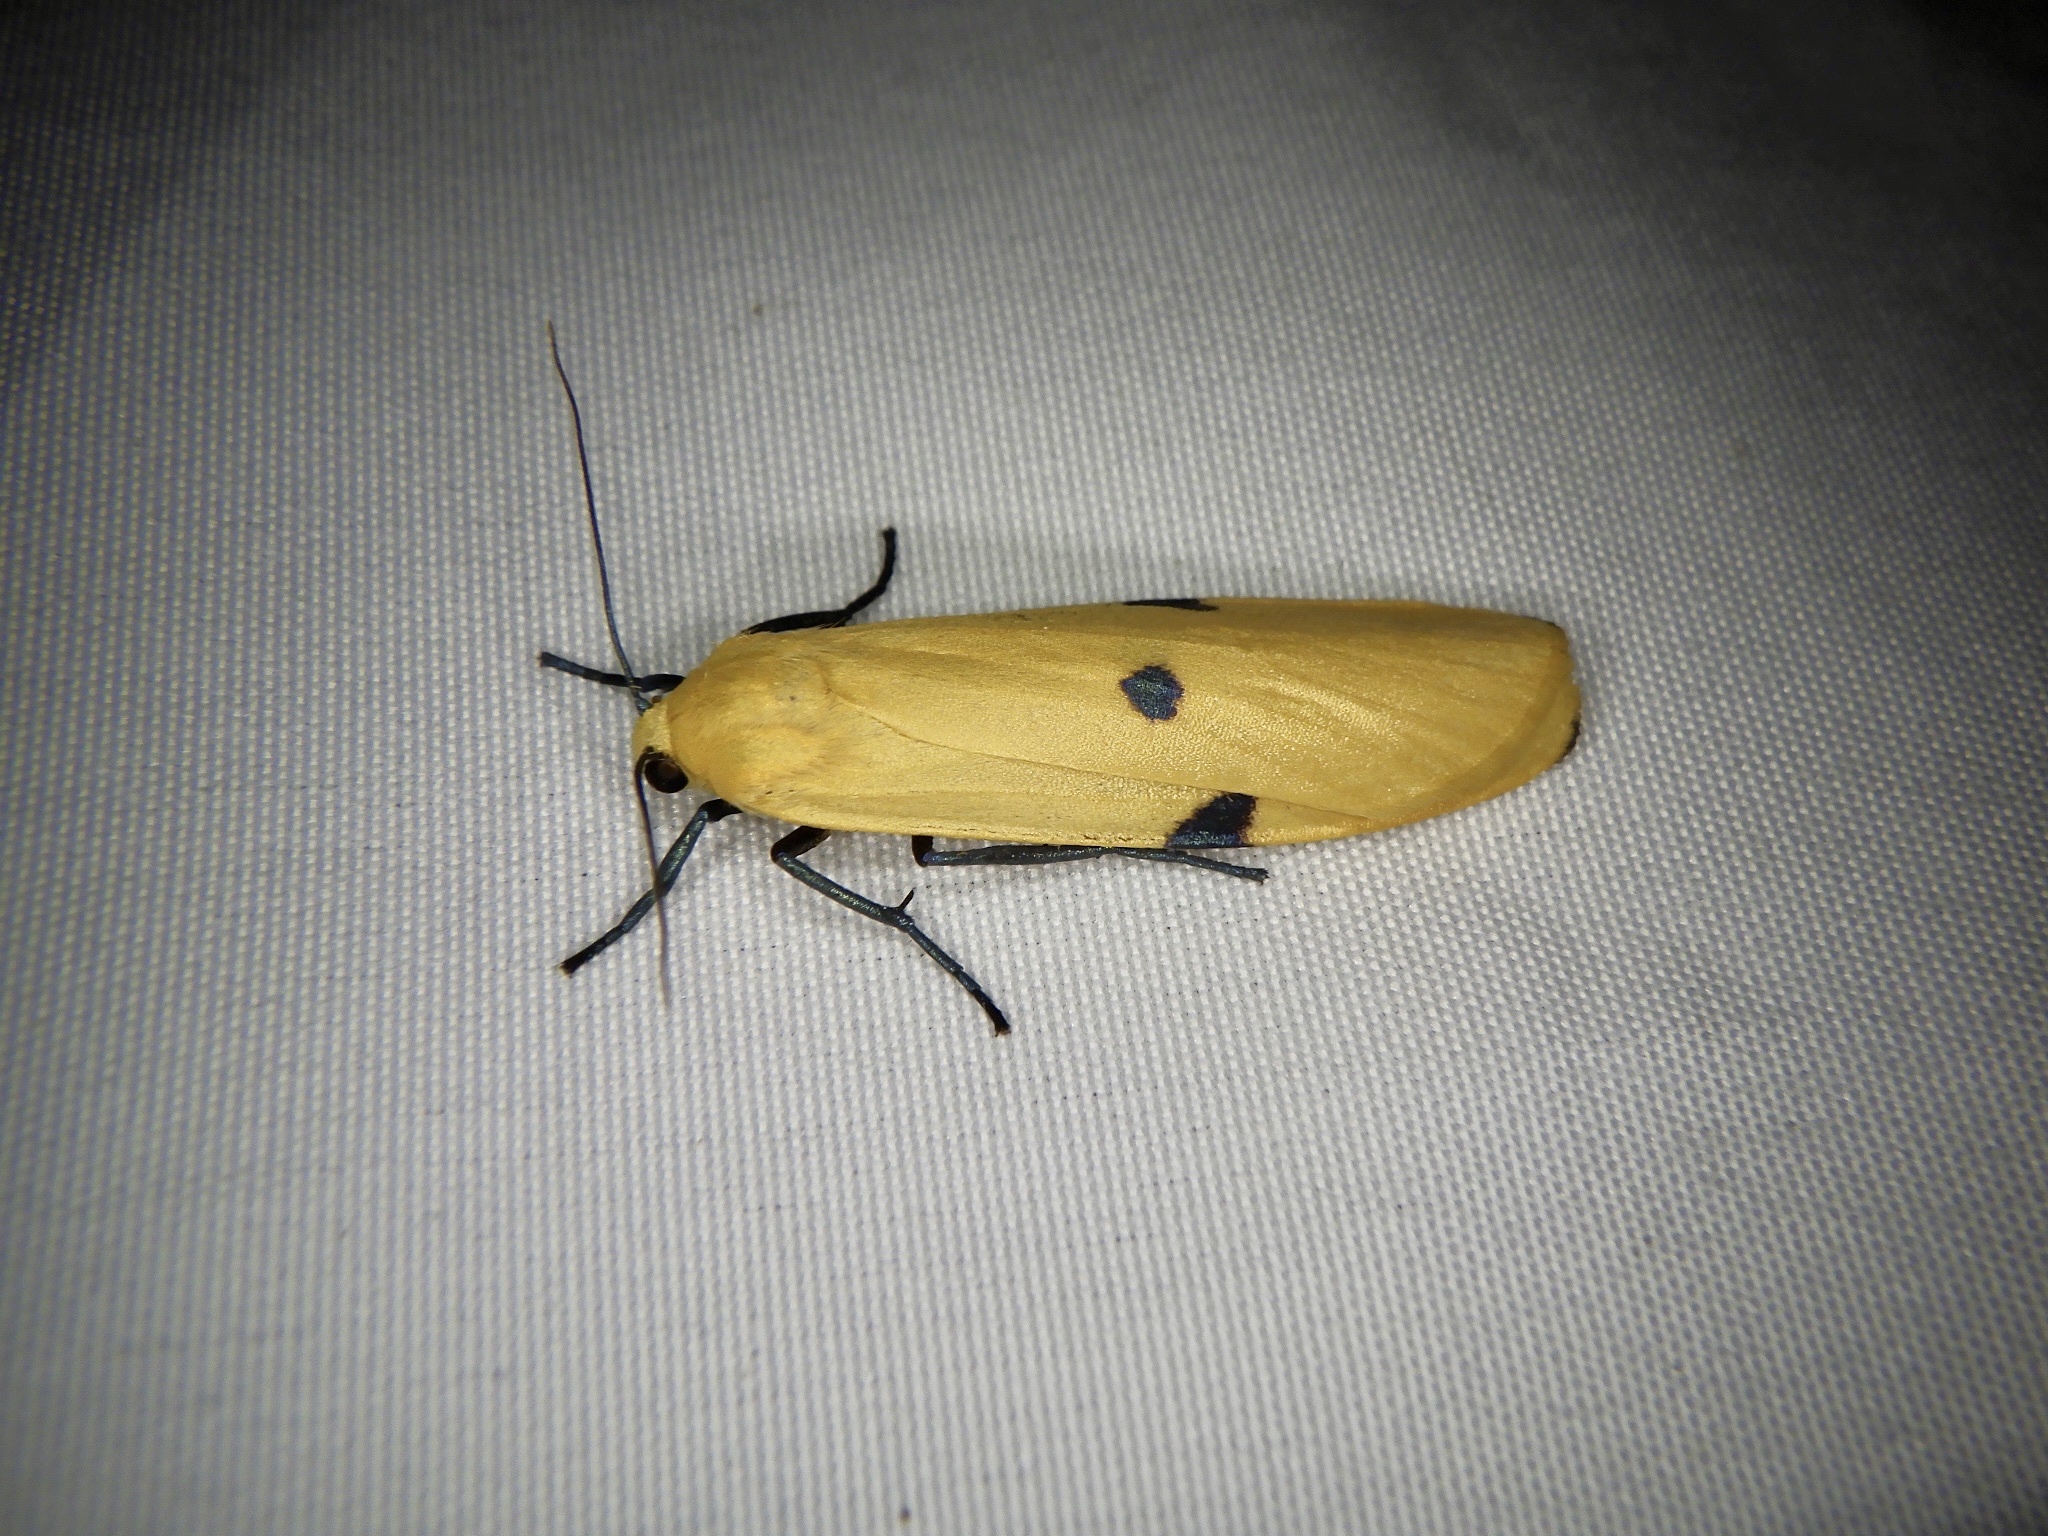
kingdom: Animalia
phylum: Arthropoda
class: Insecta
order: Lepidoptera
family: Erebidae
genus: Lithosia
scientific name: Lithosia quadra
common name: Four-spotted footman
